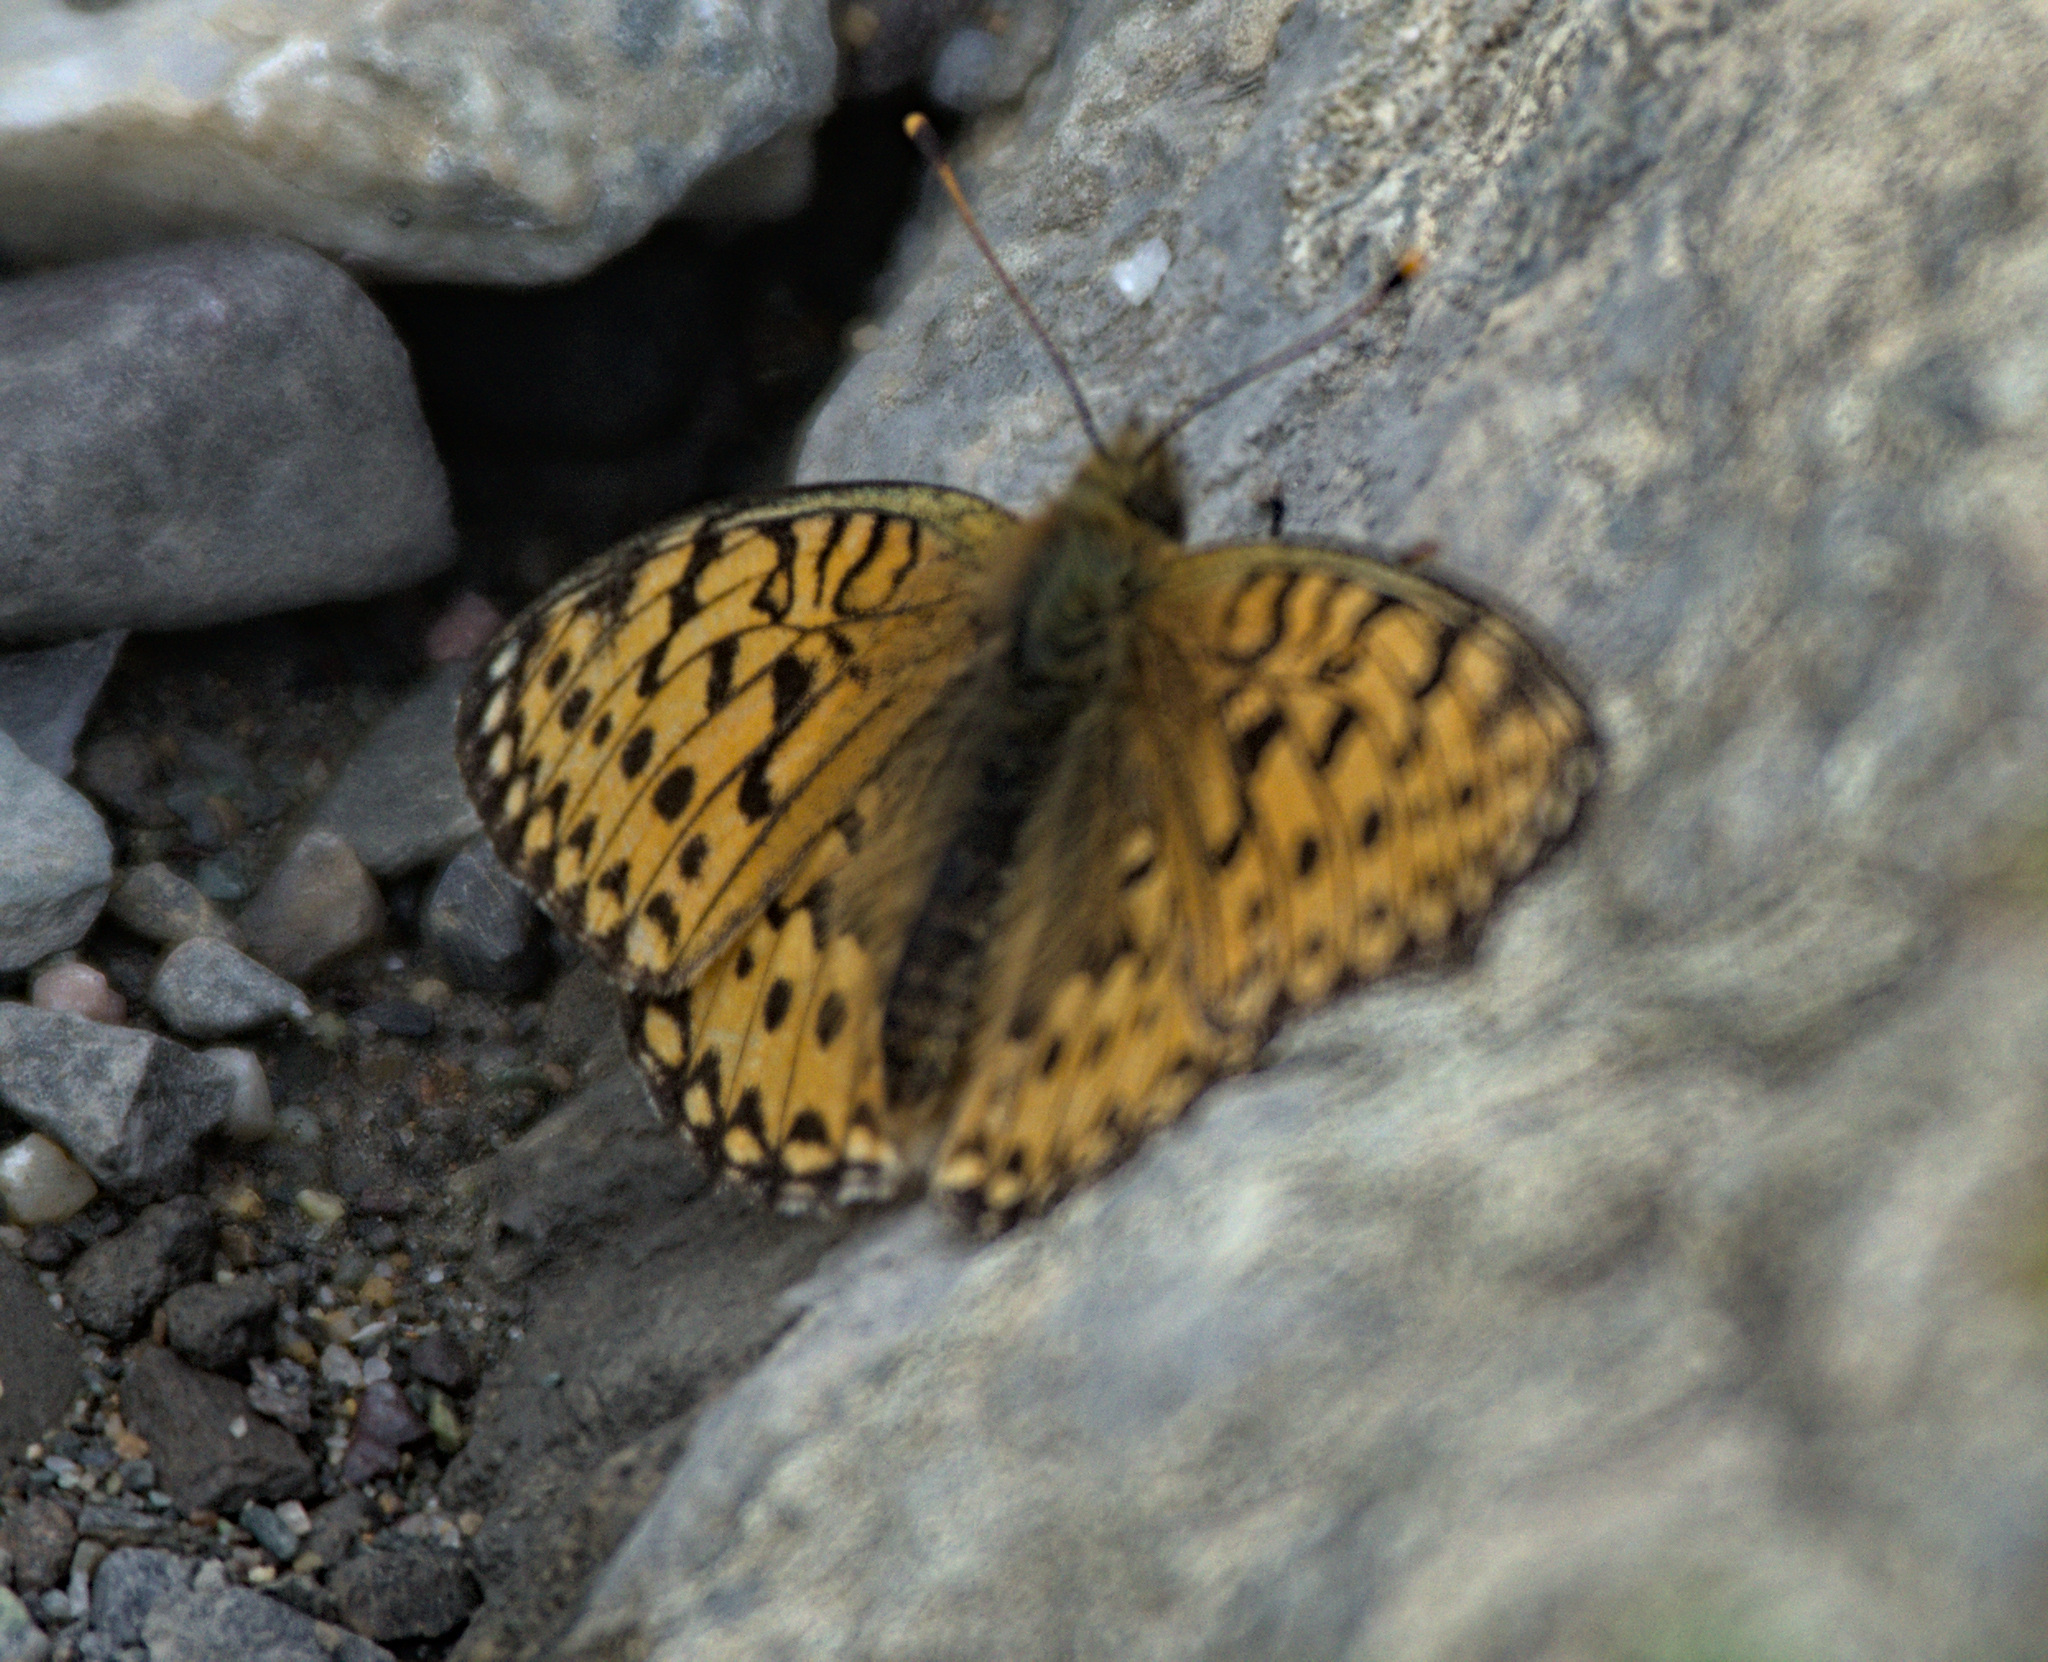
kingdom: Animalia
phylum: Arthropoda
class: Insecta
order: Lepidoptera
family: Nymphalidae
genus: Speyeria
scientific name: Speyeria aglaja
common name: Dark green fritillary
